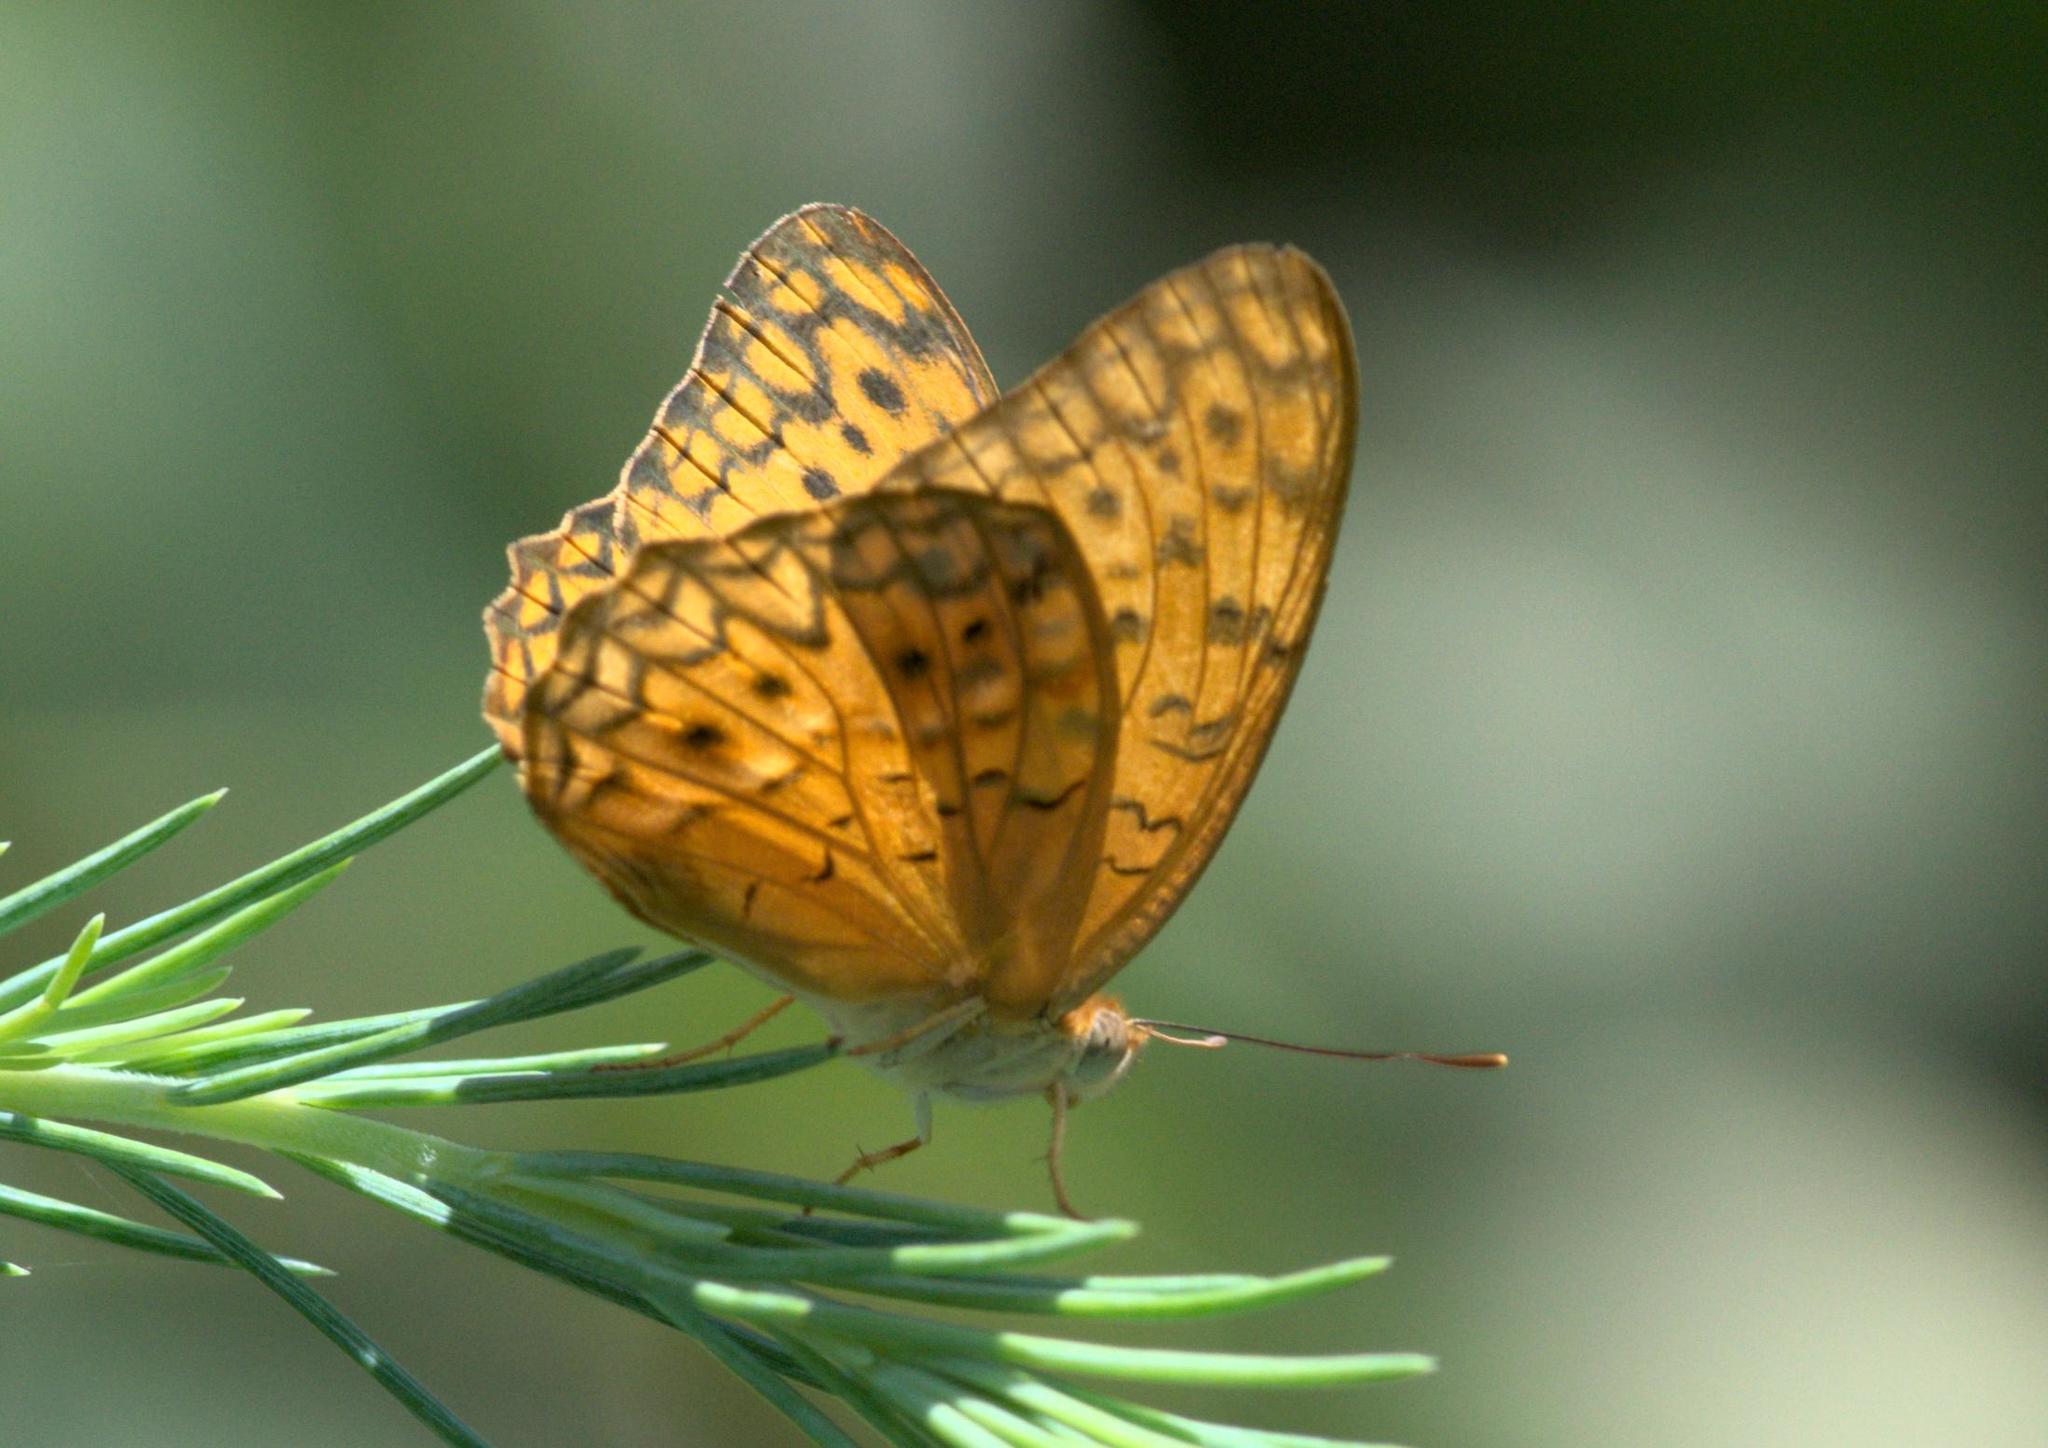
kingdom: Animalia
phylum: Arthropoda
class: Insecta
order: Lepidoptera
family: Nymphalidae
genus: Phalanta
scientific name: Phalanta phalantha
